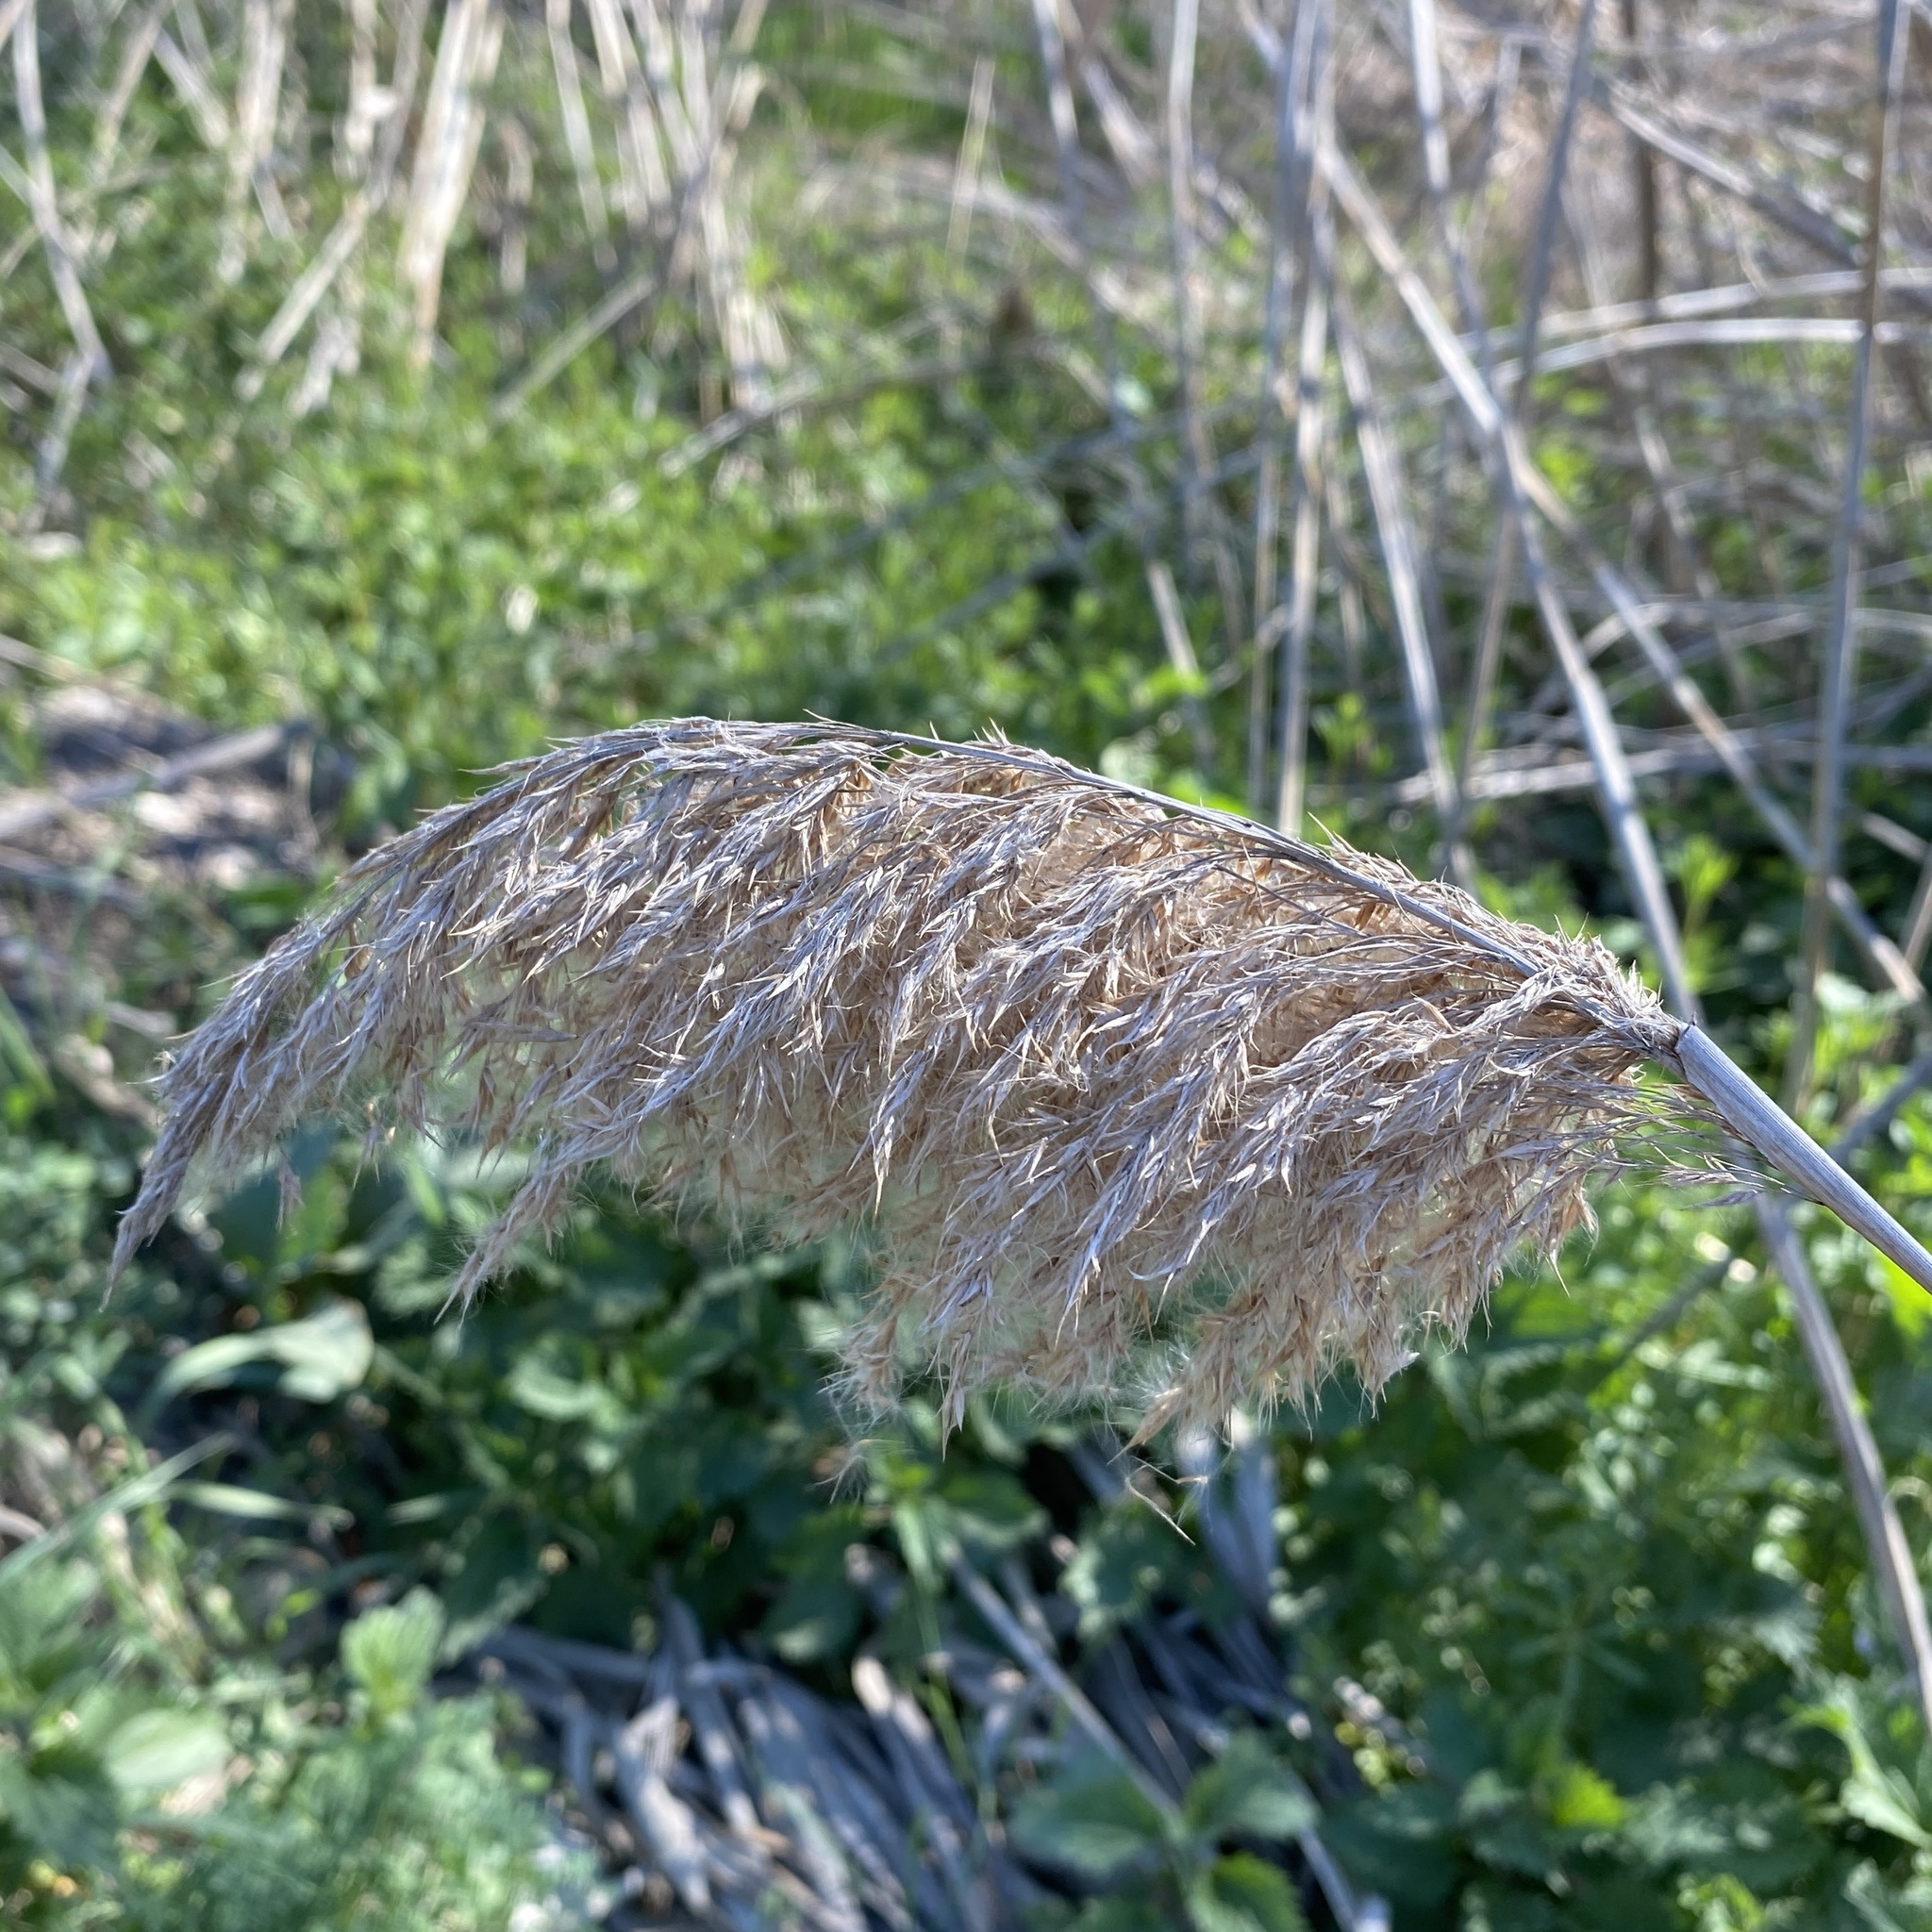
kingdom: Plantae
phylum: Tracheophyta
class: Liliopsida
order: Poales
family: Poaceae
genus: Phragmites
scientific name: Phragmites australis
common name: Common reed
